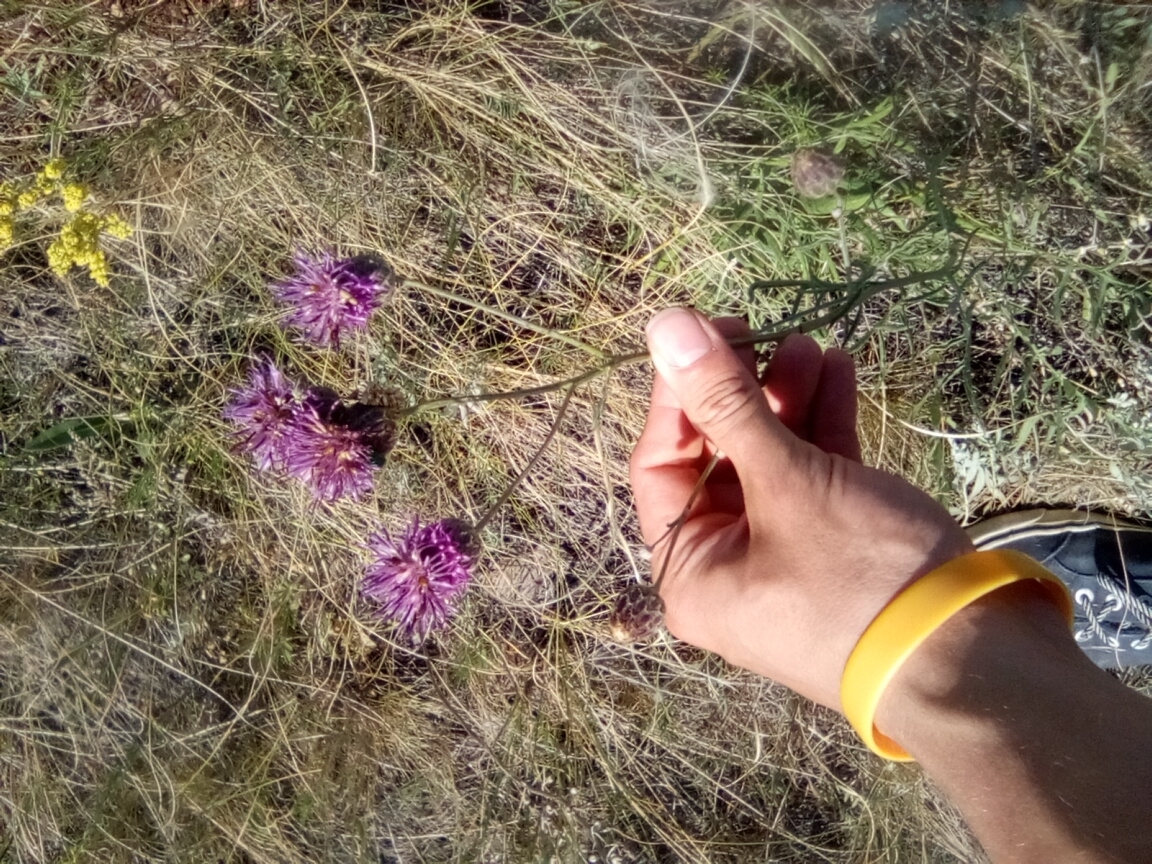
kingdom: Plantae
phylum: Tracheophyta
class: Magnoliopsida
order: Asterales
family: Asteraceae
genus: Centaurea
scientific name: Centaurea scabiosa
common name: Greater knapweed
